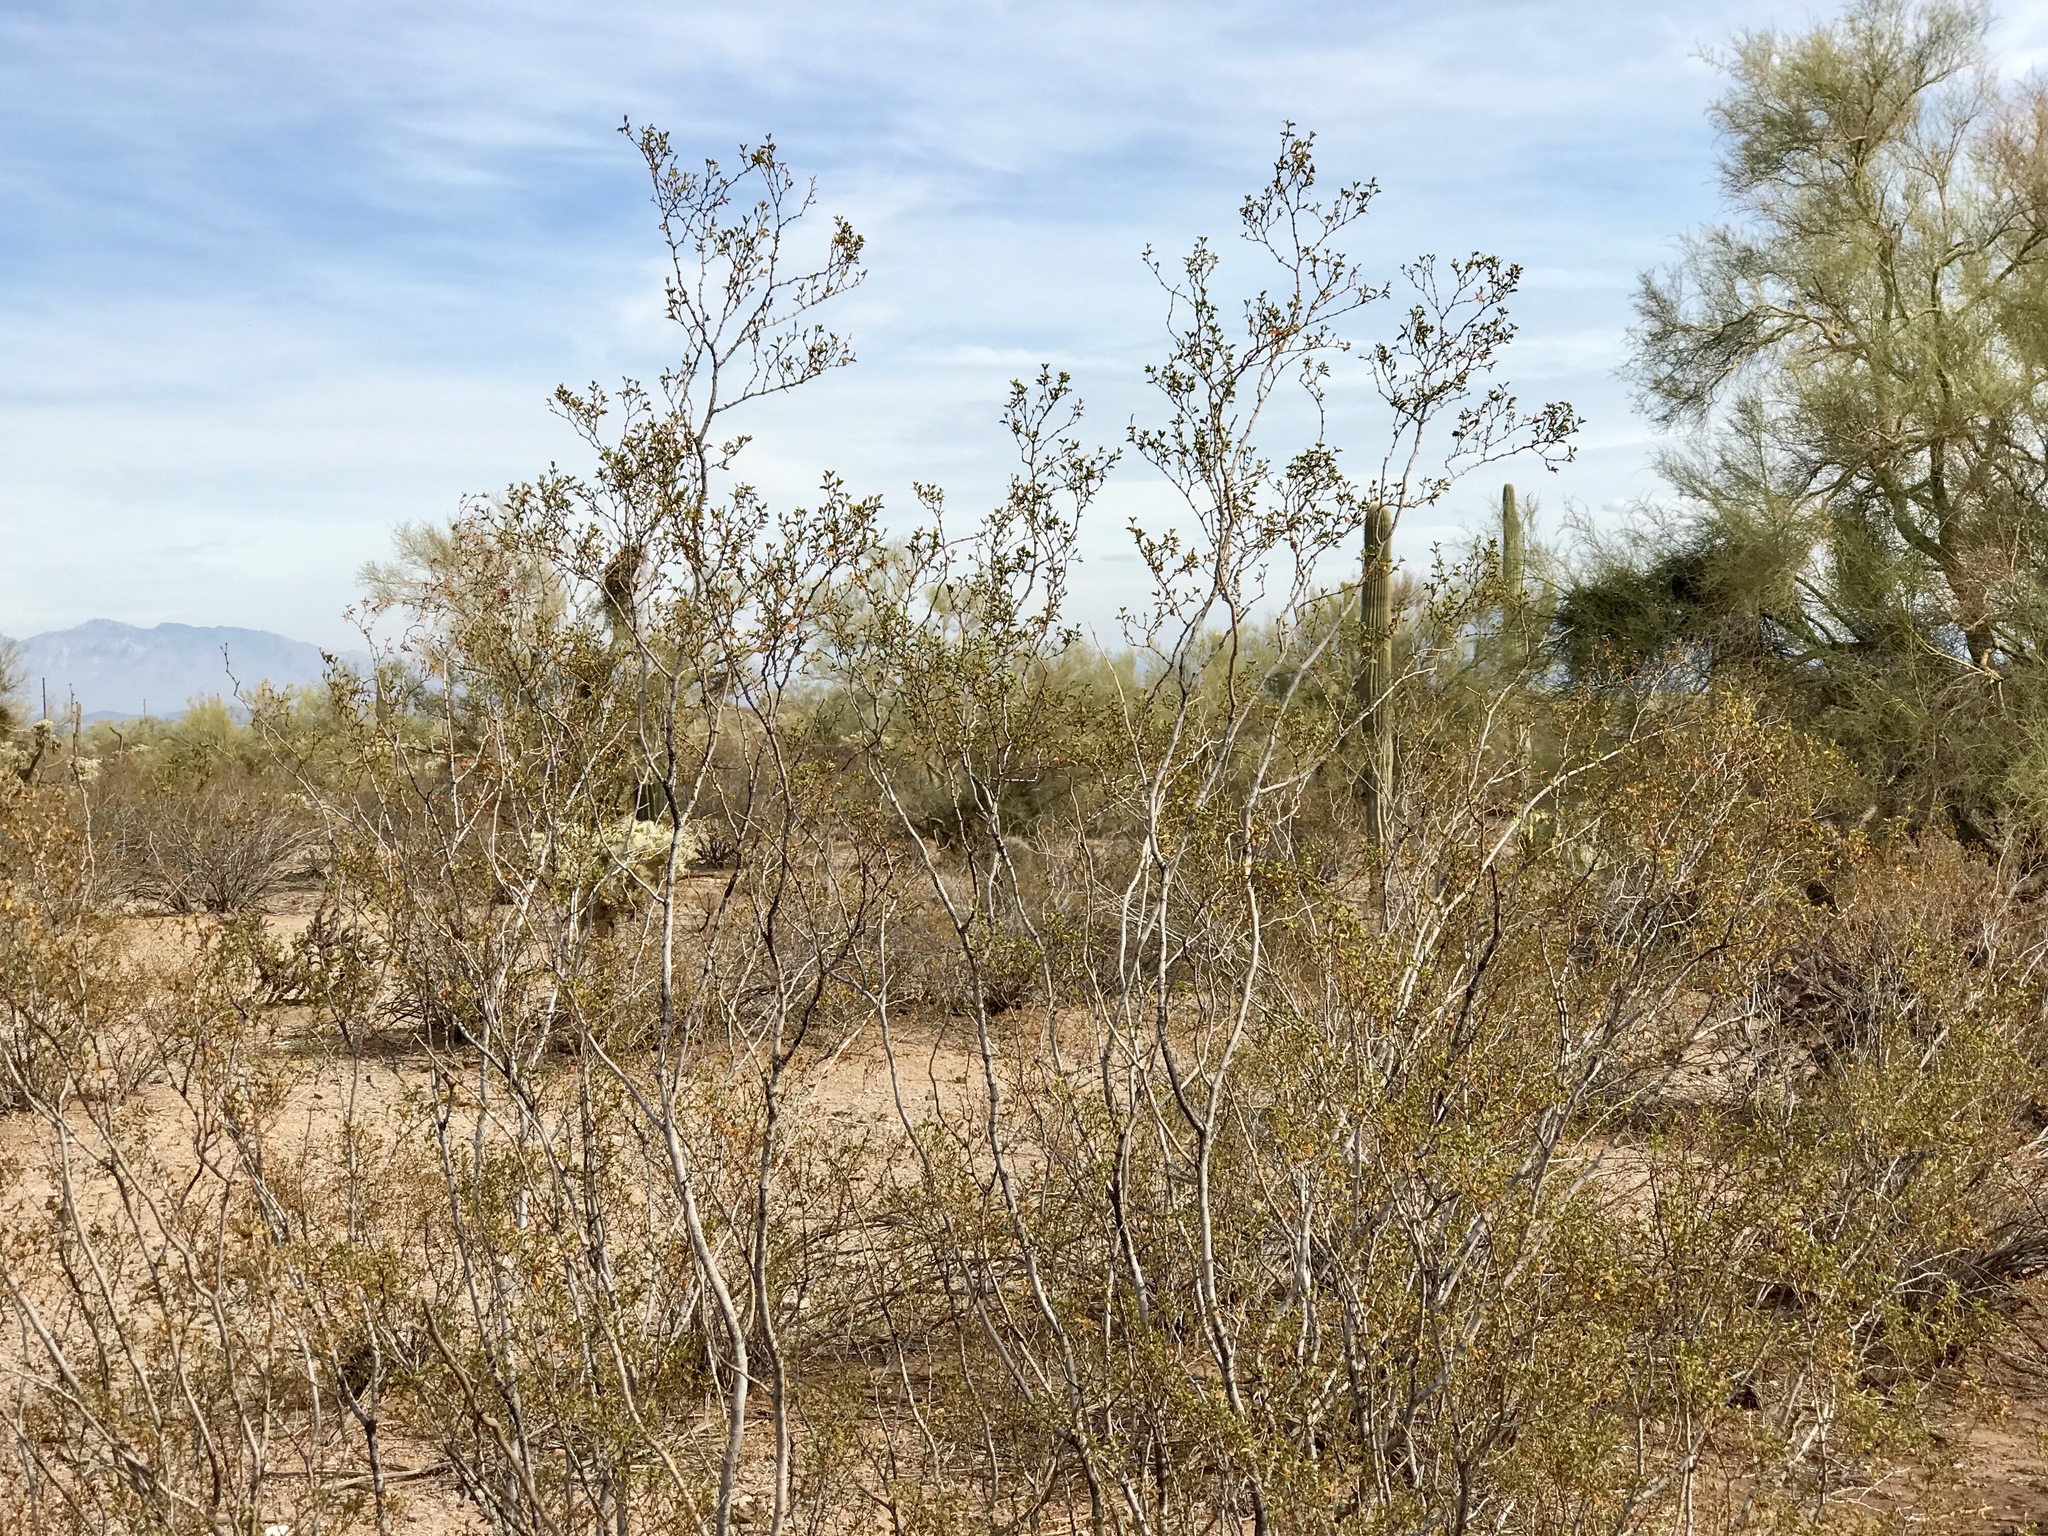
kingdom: Plantae
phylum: Tracheophyta
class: Magnoliopsida
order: Zygophyllales
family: Zygophyllaceae
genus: Larrea
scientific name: Larrea tridentata
